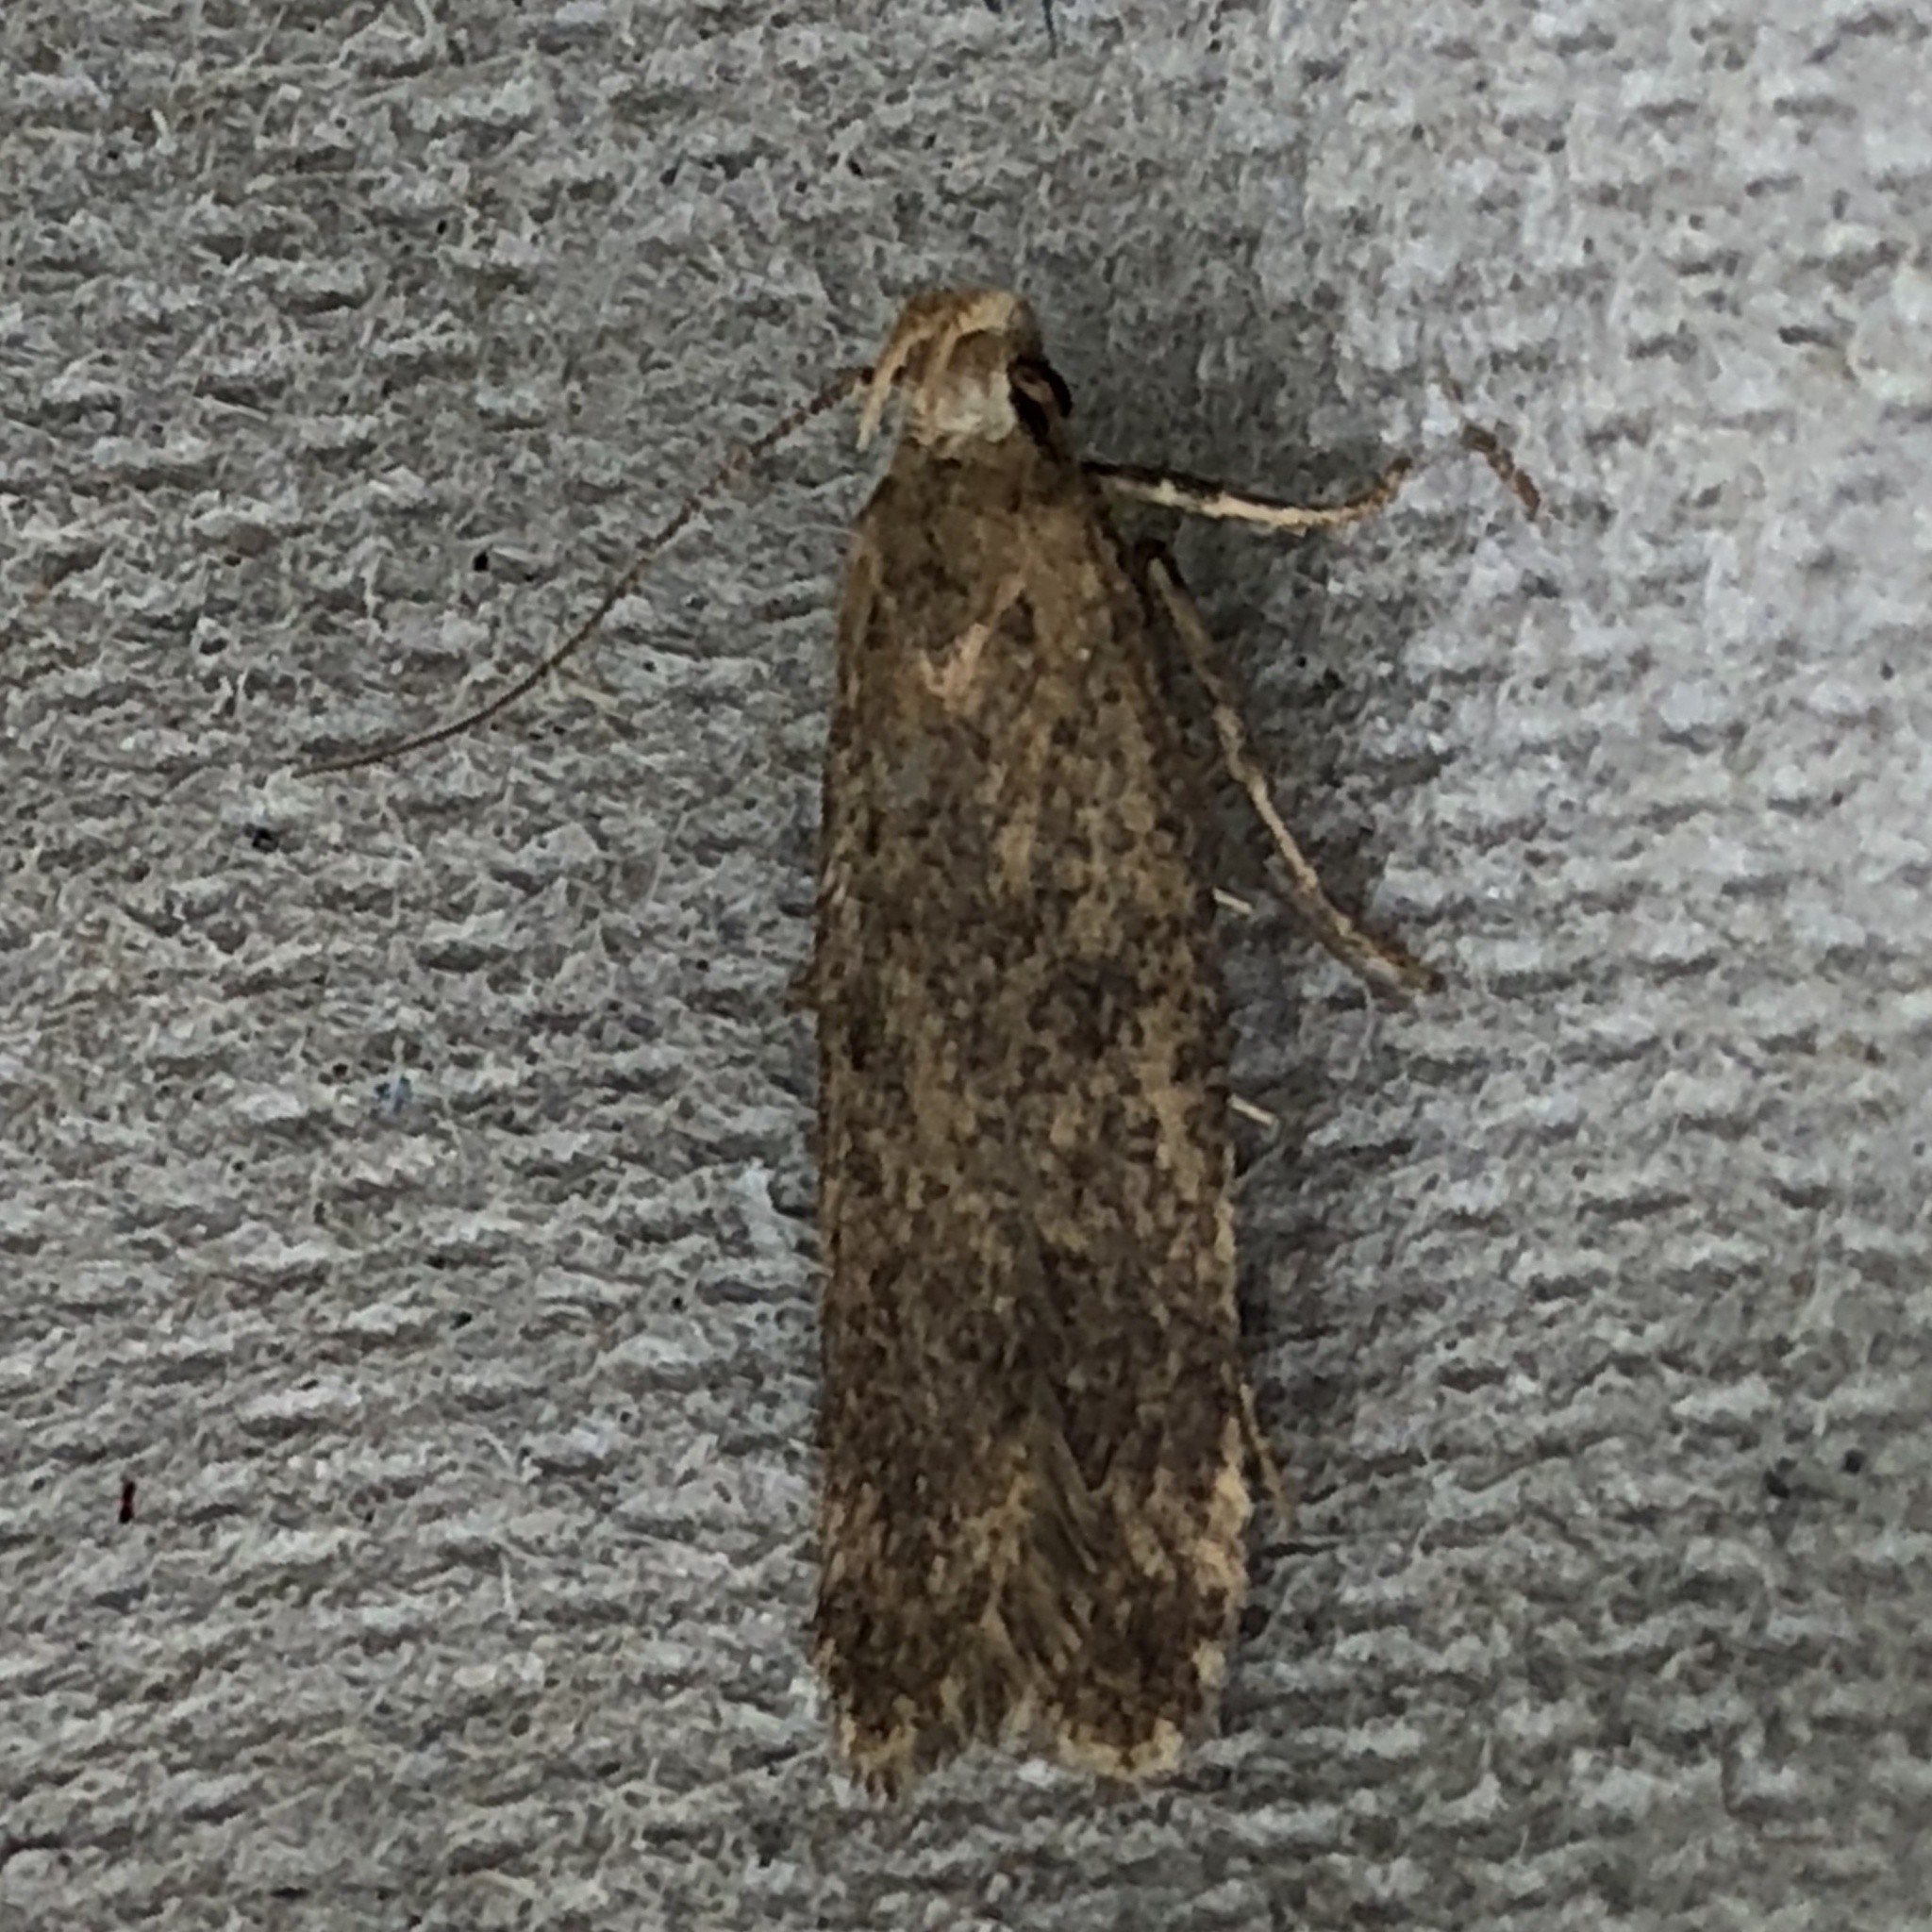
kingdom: Animalia
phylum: Arthropoda
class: Insecta
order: Lepidoptera
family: Oecophoridae
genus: Hofmannophila
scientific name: Hofmannophila pseudospretella
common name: Brown house moth
